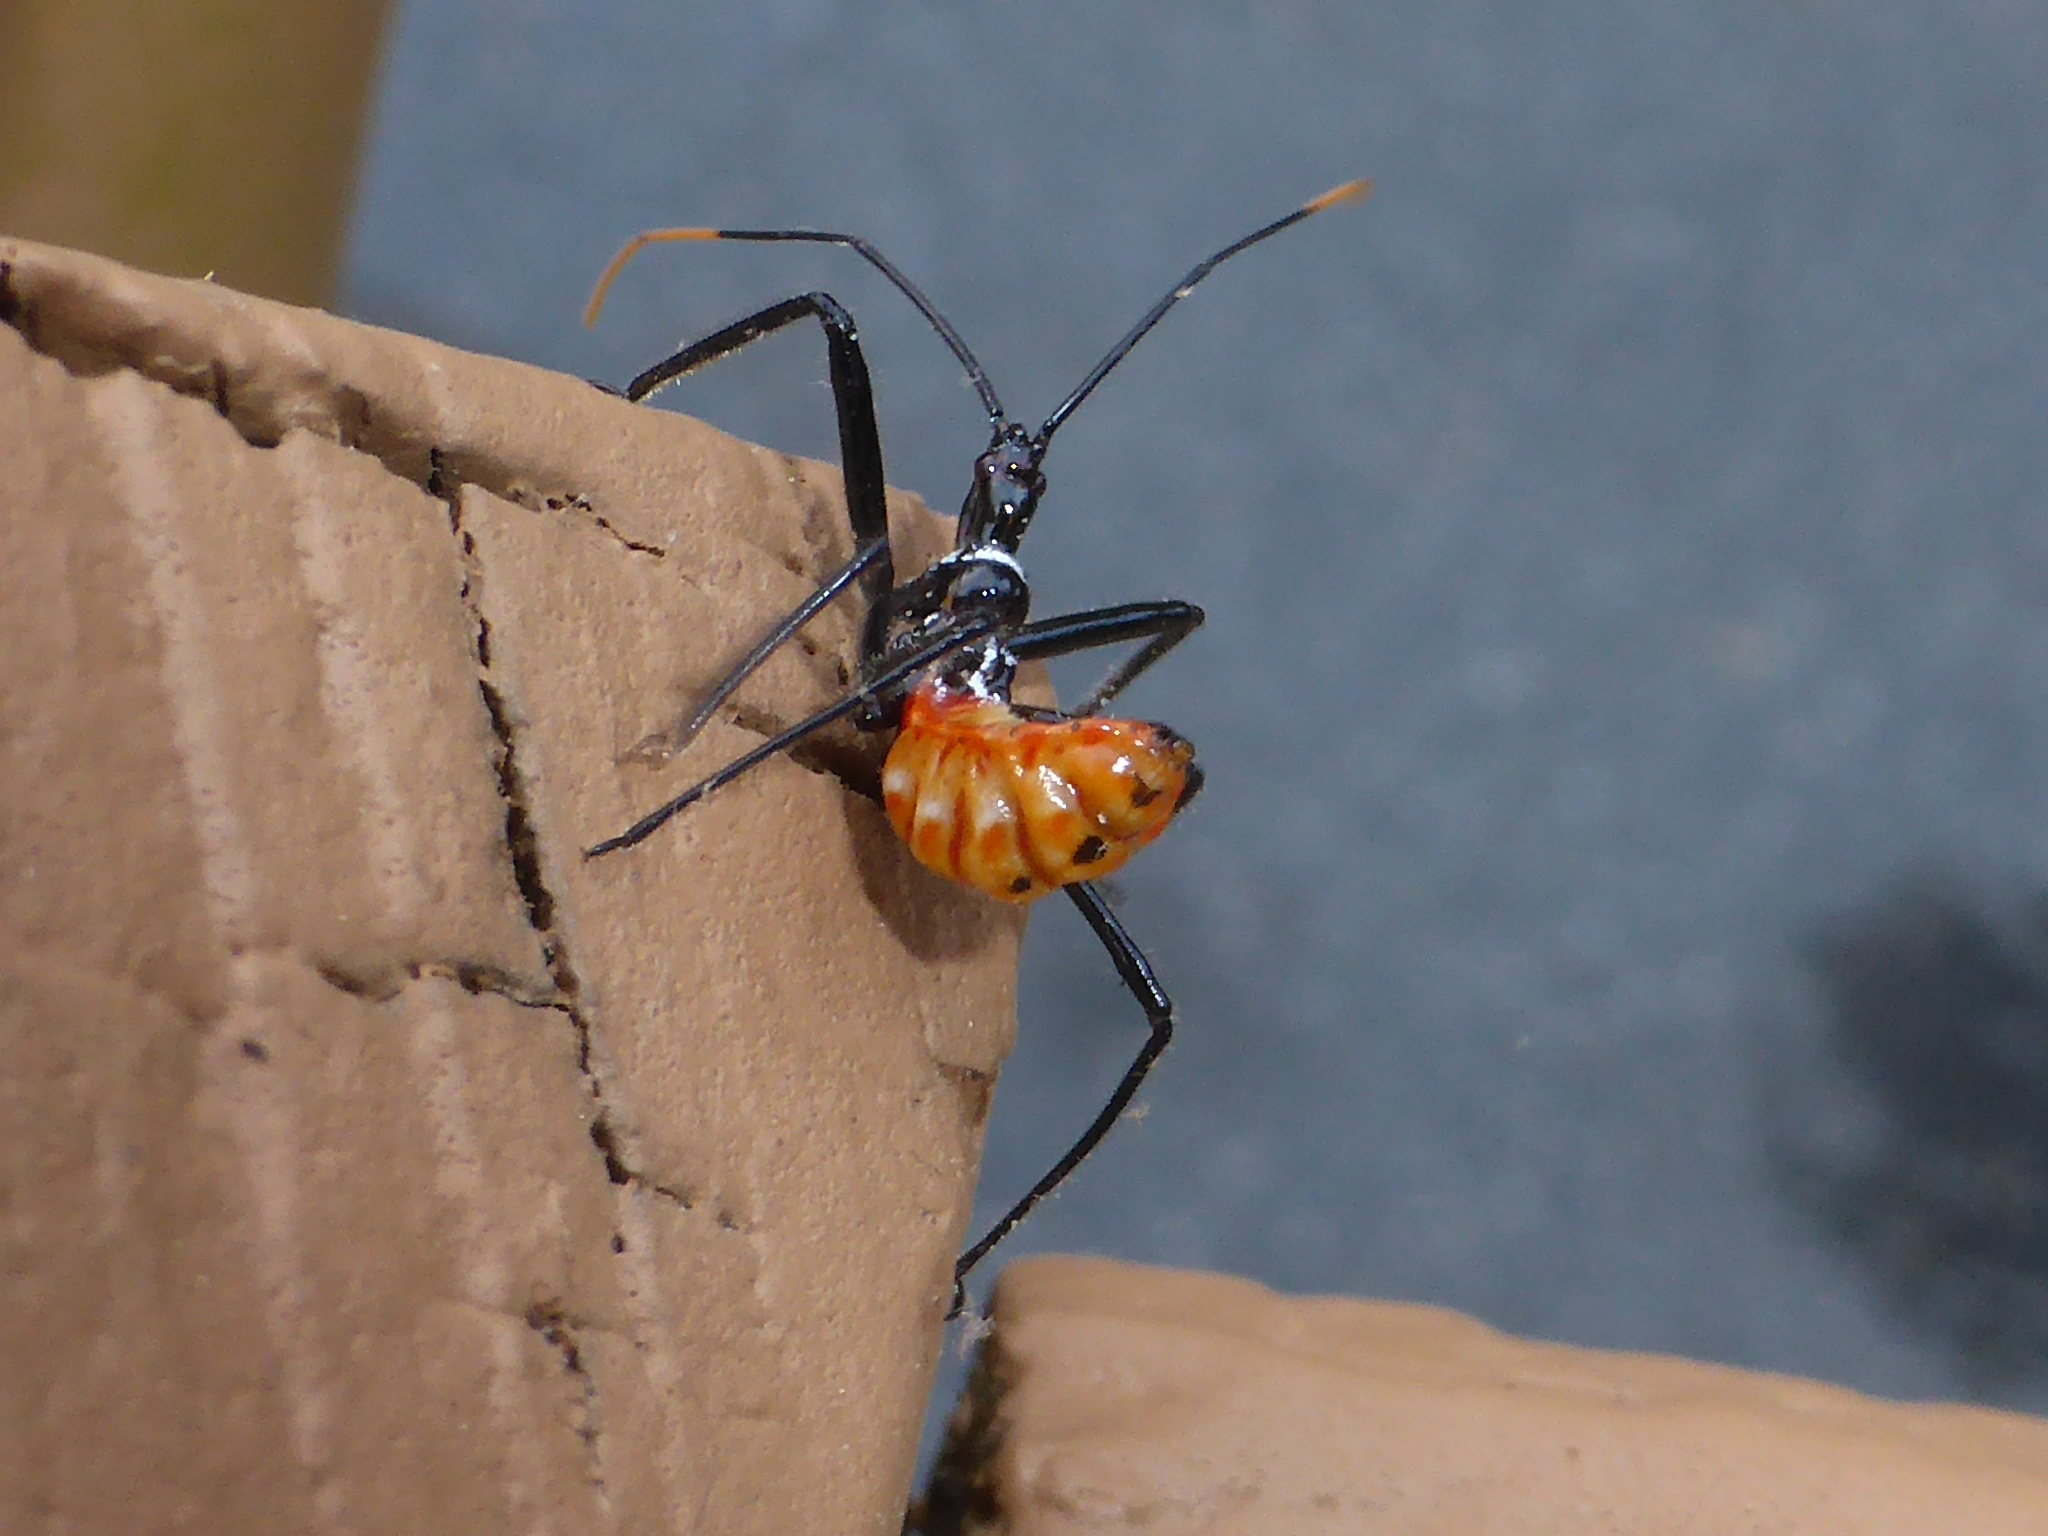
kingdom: Animalia
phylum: Arthropoda
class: Insecta
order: Hemiptera
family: Reduviidae
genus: Arilus
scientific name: Arilus cristatus
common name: North american wheel bug
